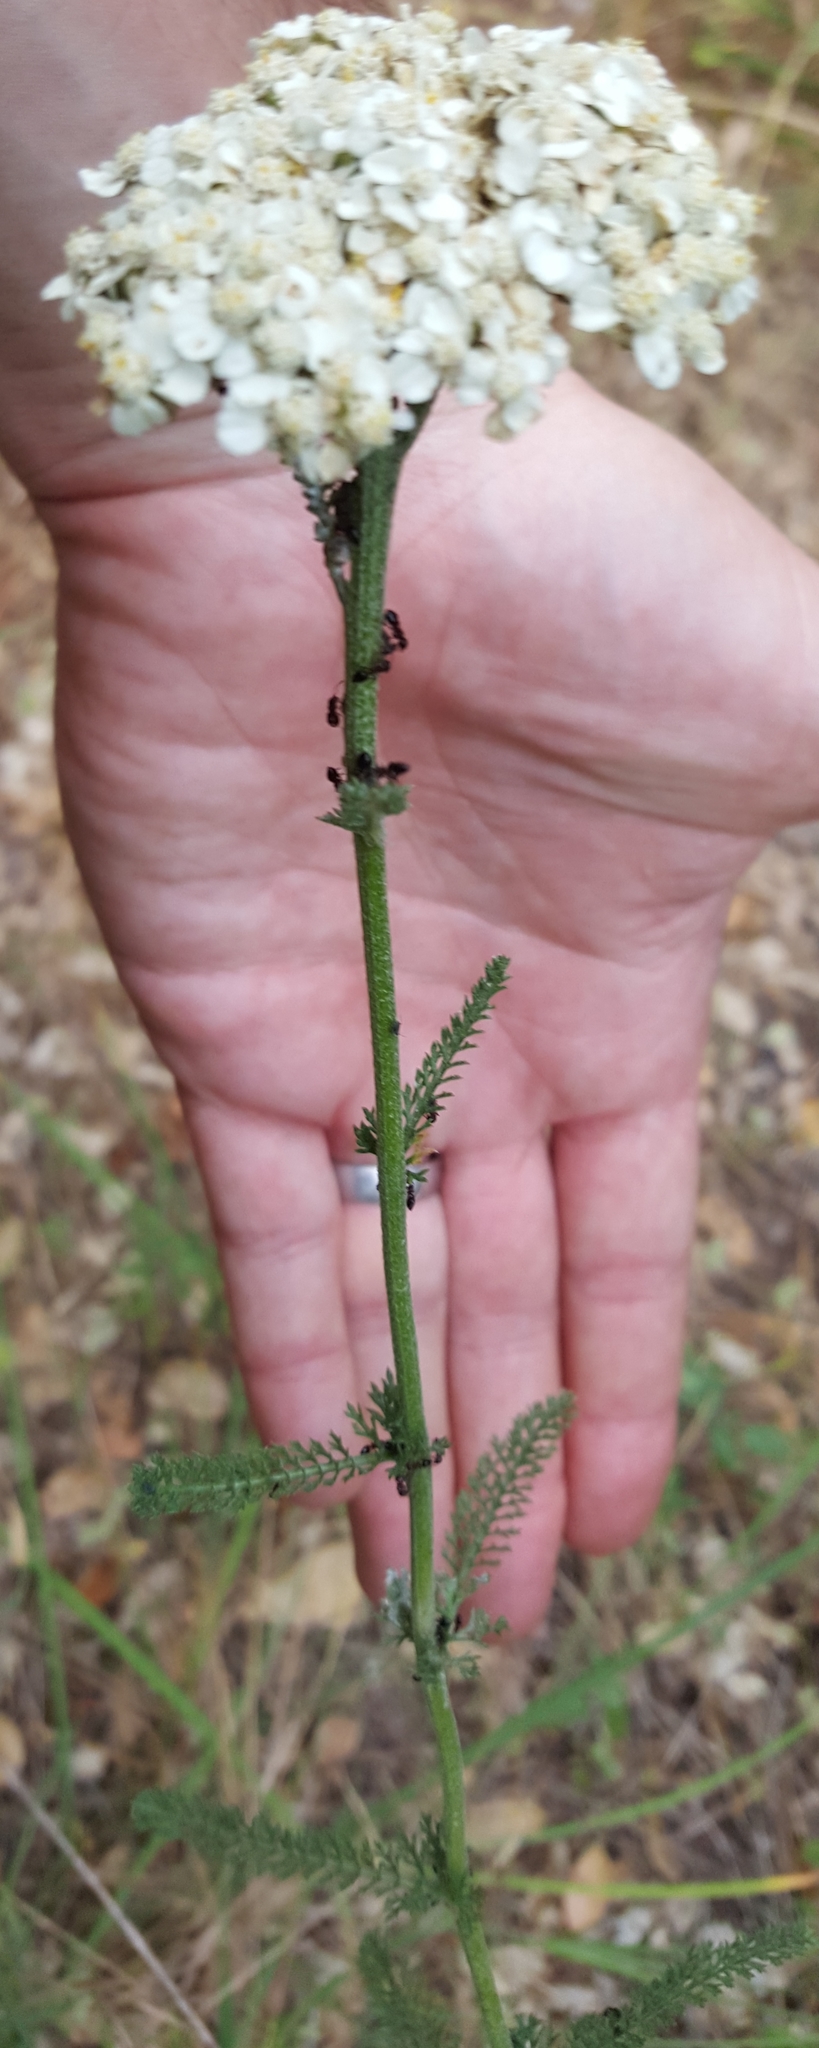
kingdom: Plantae
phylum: Tracheophyta
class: Magnoliopsida
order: Asterales
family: Asteraceae
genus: Achillea
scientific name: Achillea millefolium
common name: Yarrow
